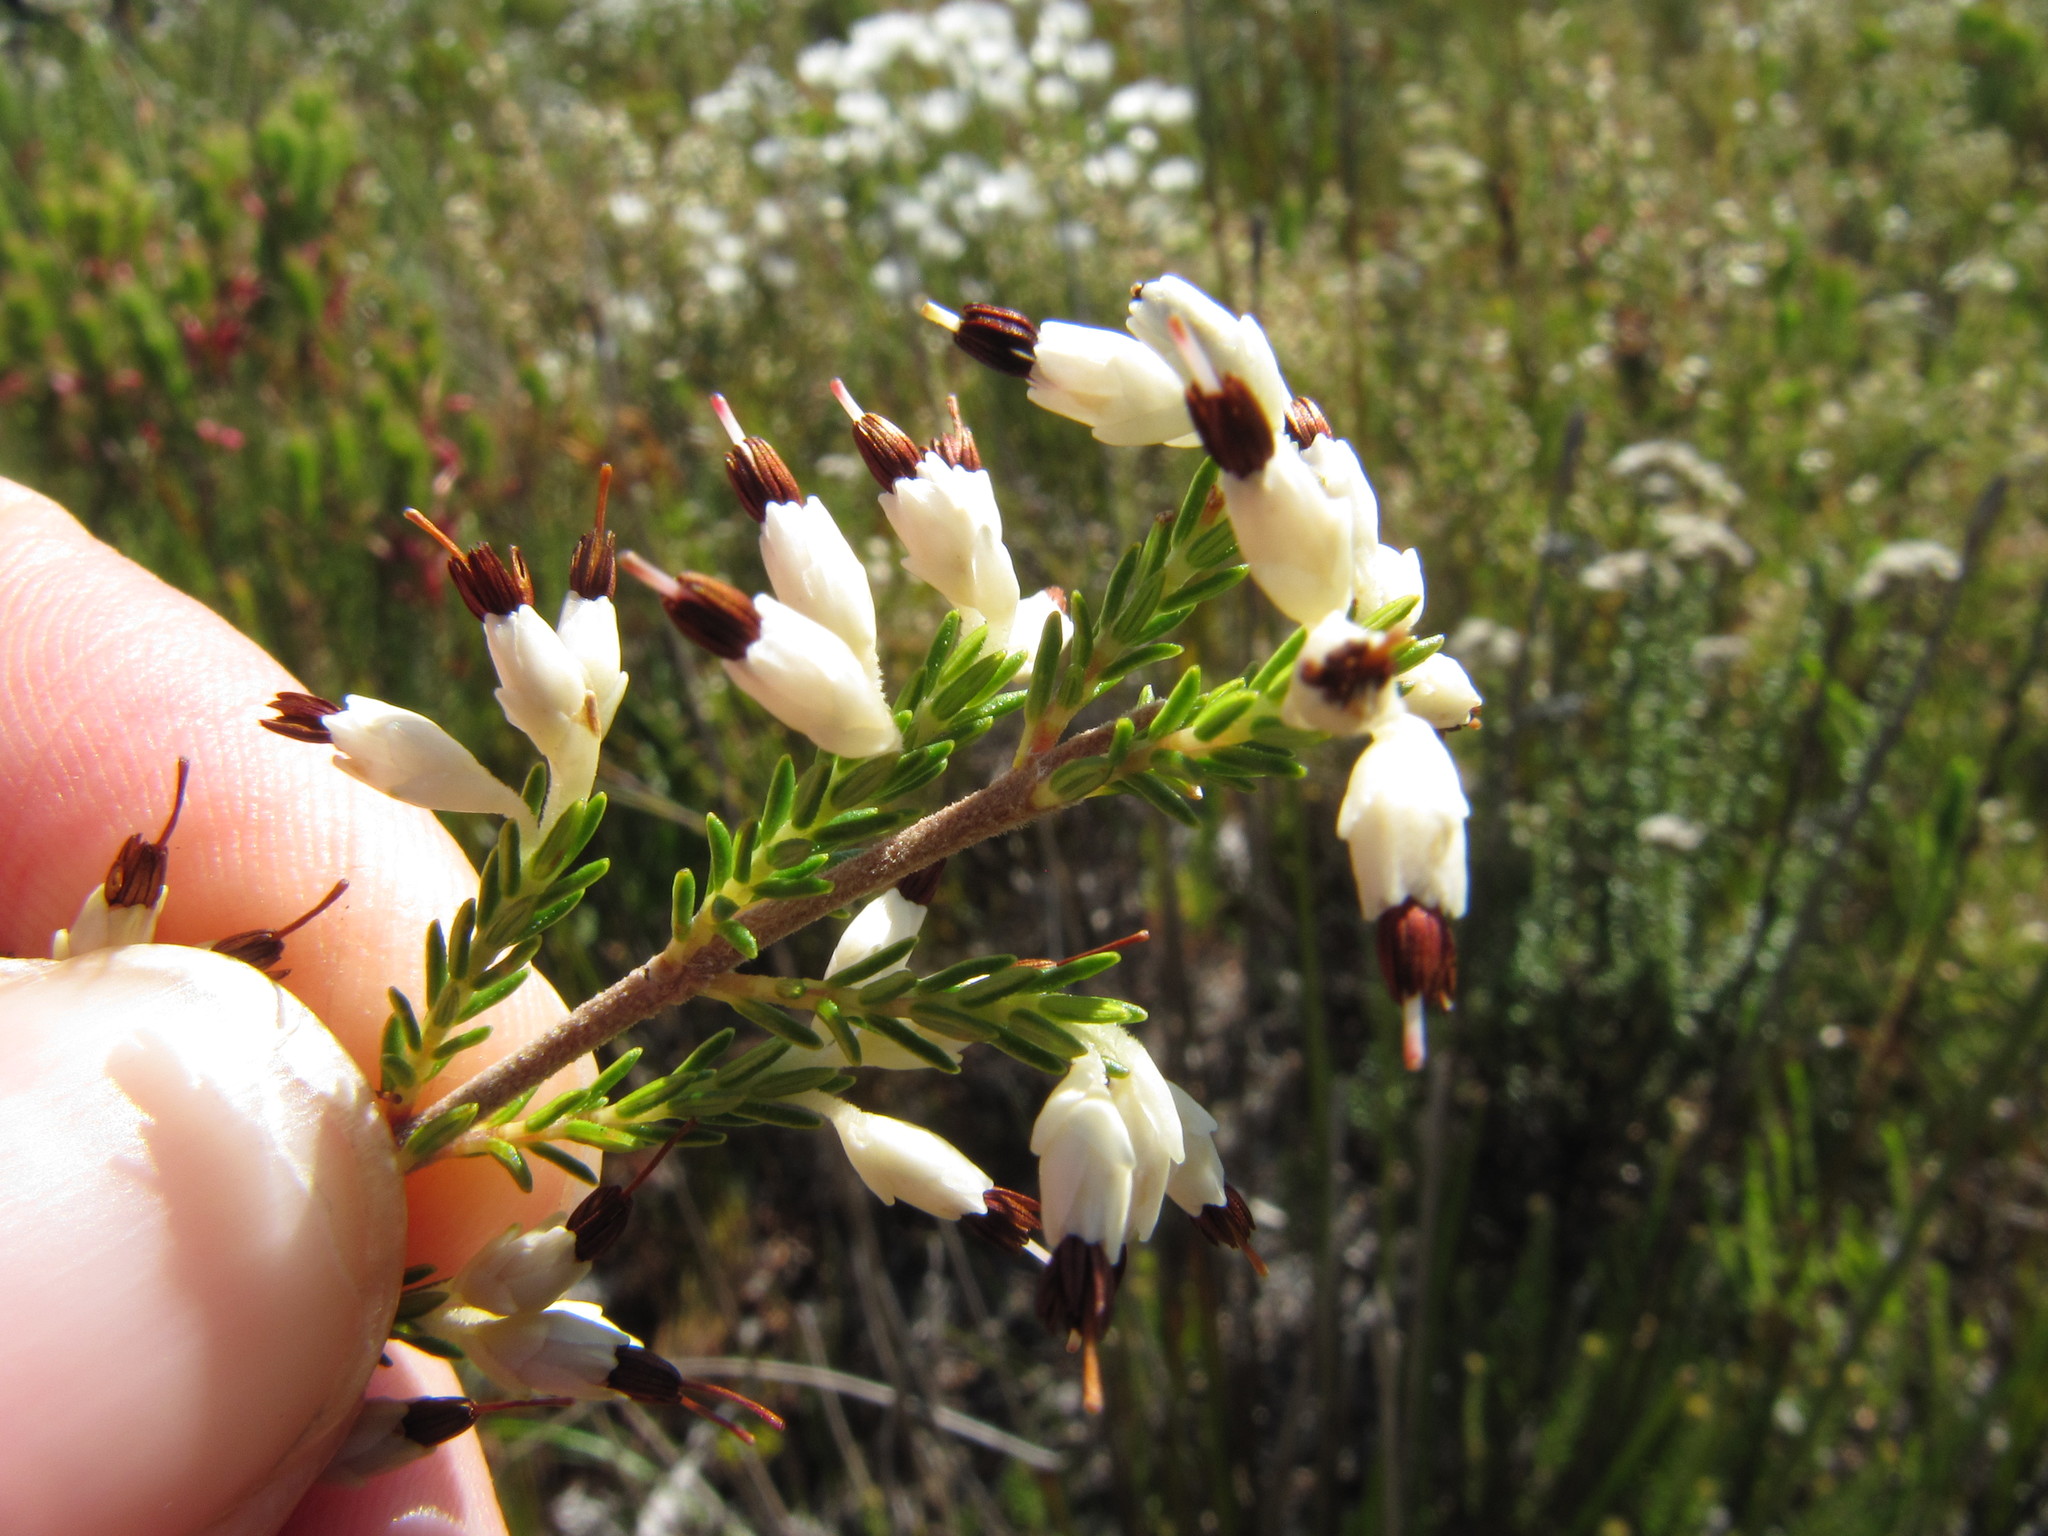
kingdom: Plantae
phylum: Tracheophyta
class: Magnoliopsida
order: Ericales
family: Ericaceae
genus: Erica
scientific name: Erica imbricata
